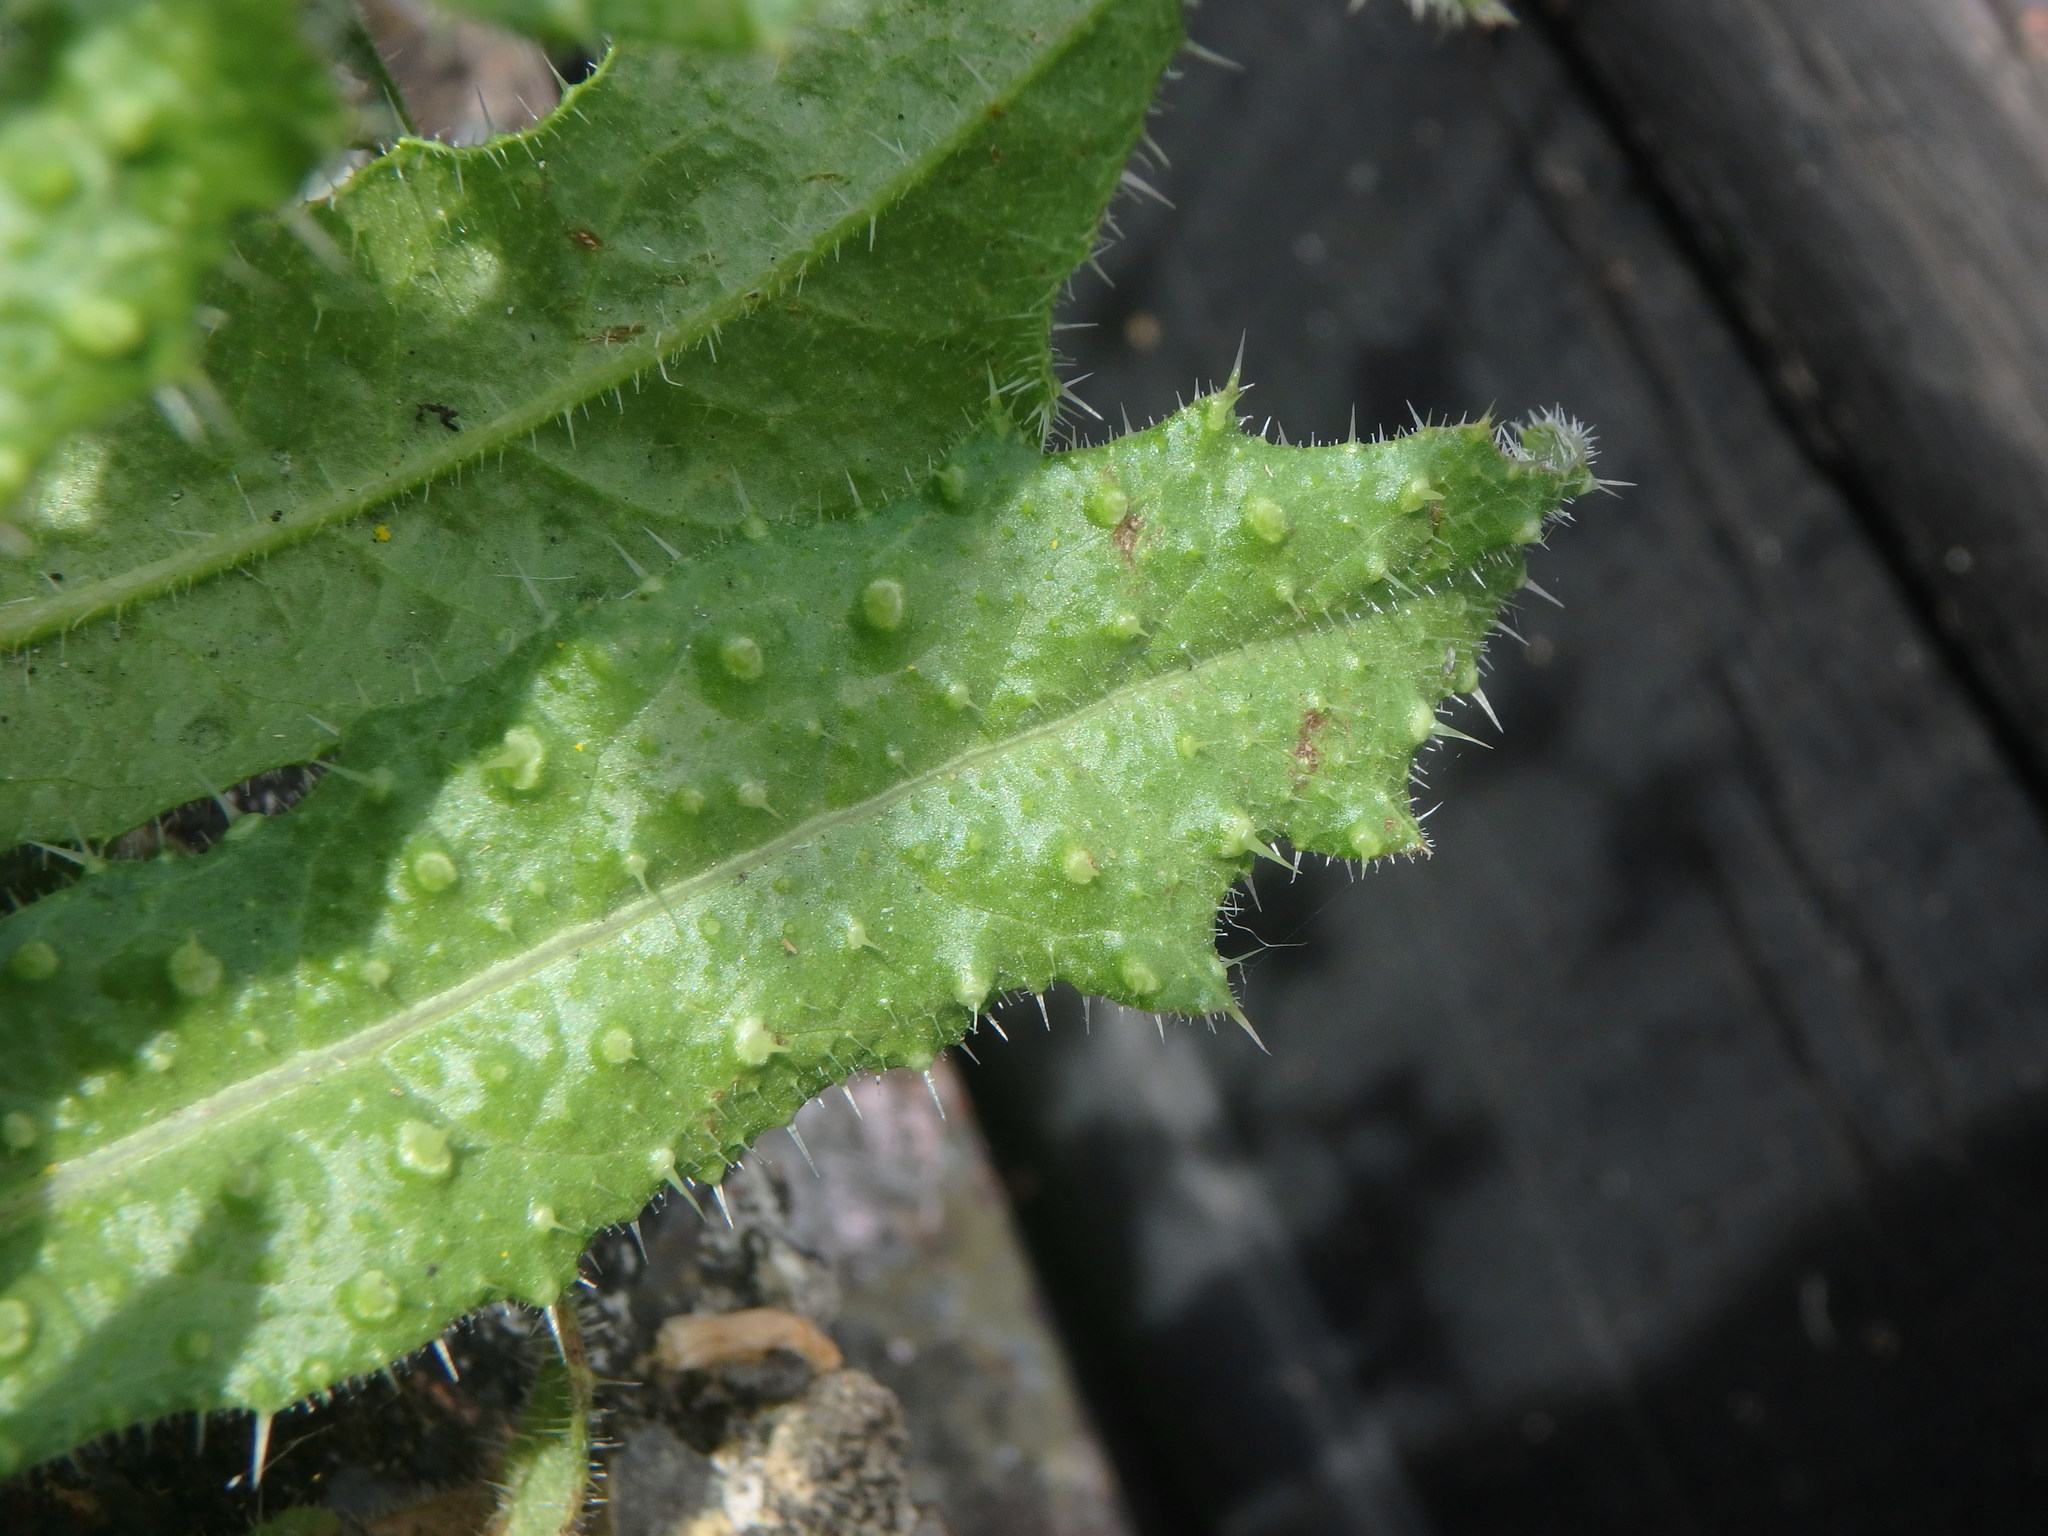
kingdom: Plantae
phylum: Tracheophyta
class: Magnoliopsida
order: Asterales
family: Asteraceae
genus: Helminthotheca
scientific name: Helminthotheca echioides
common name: Ox-tongue
